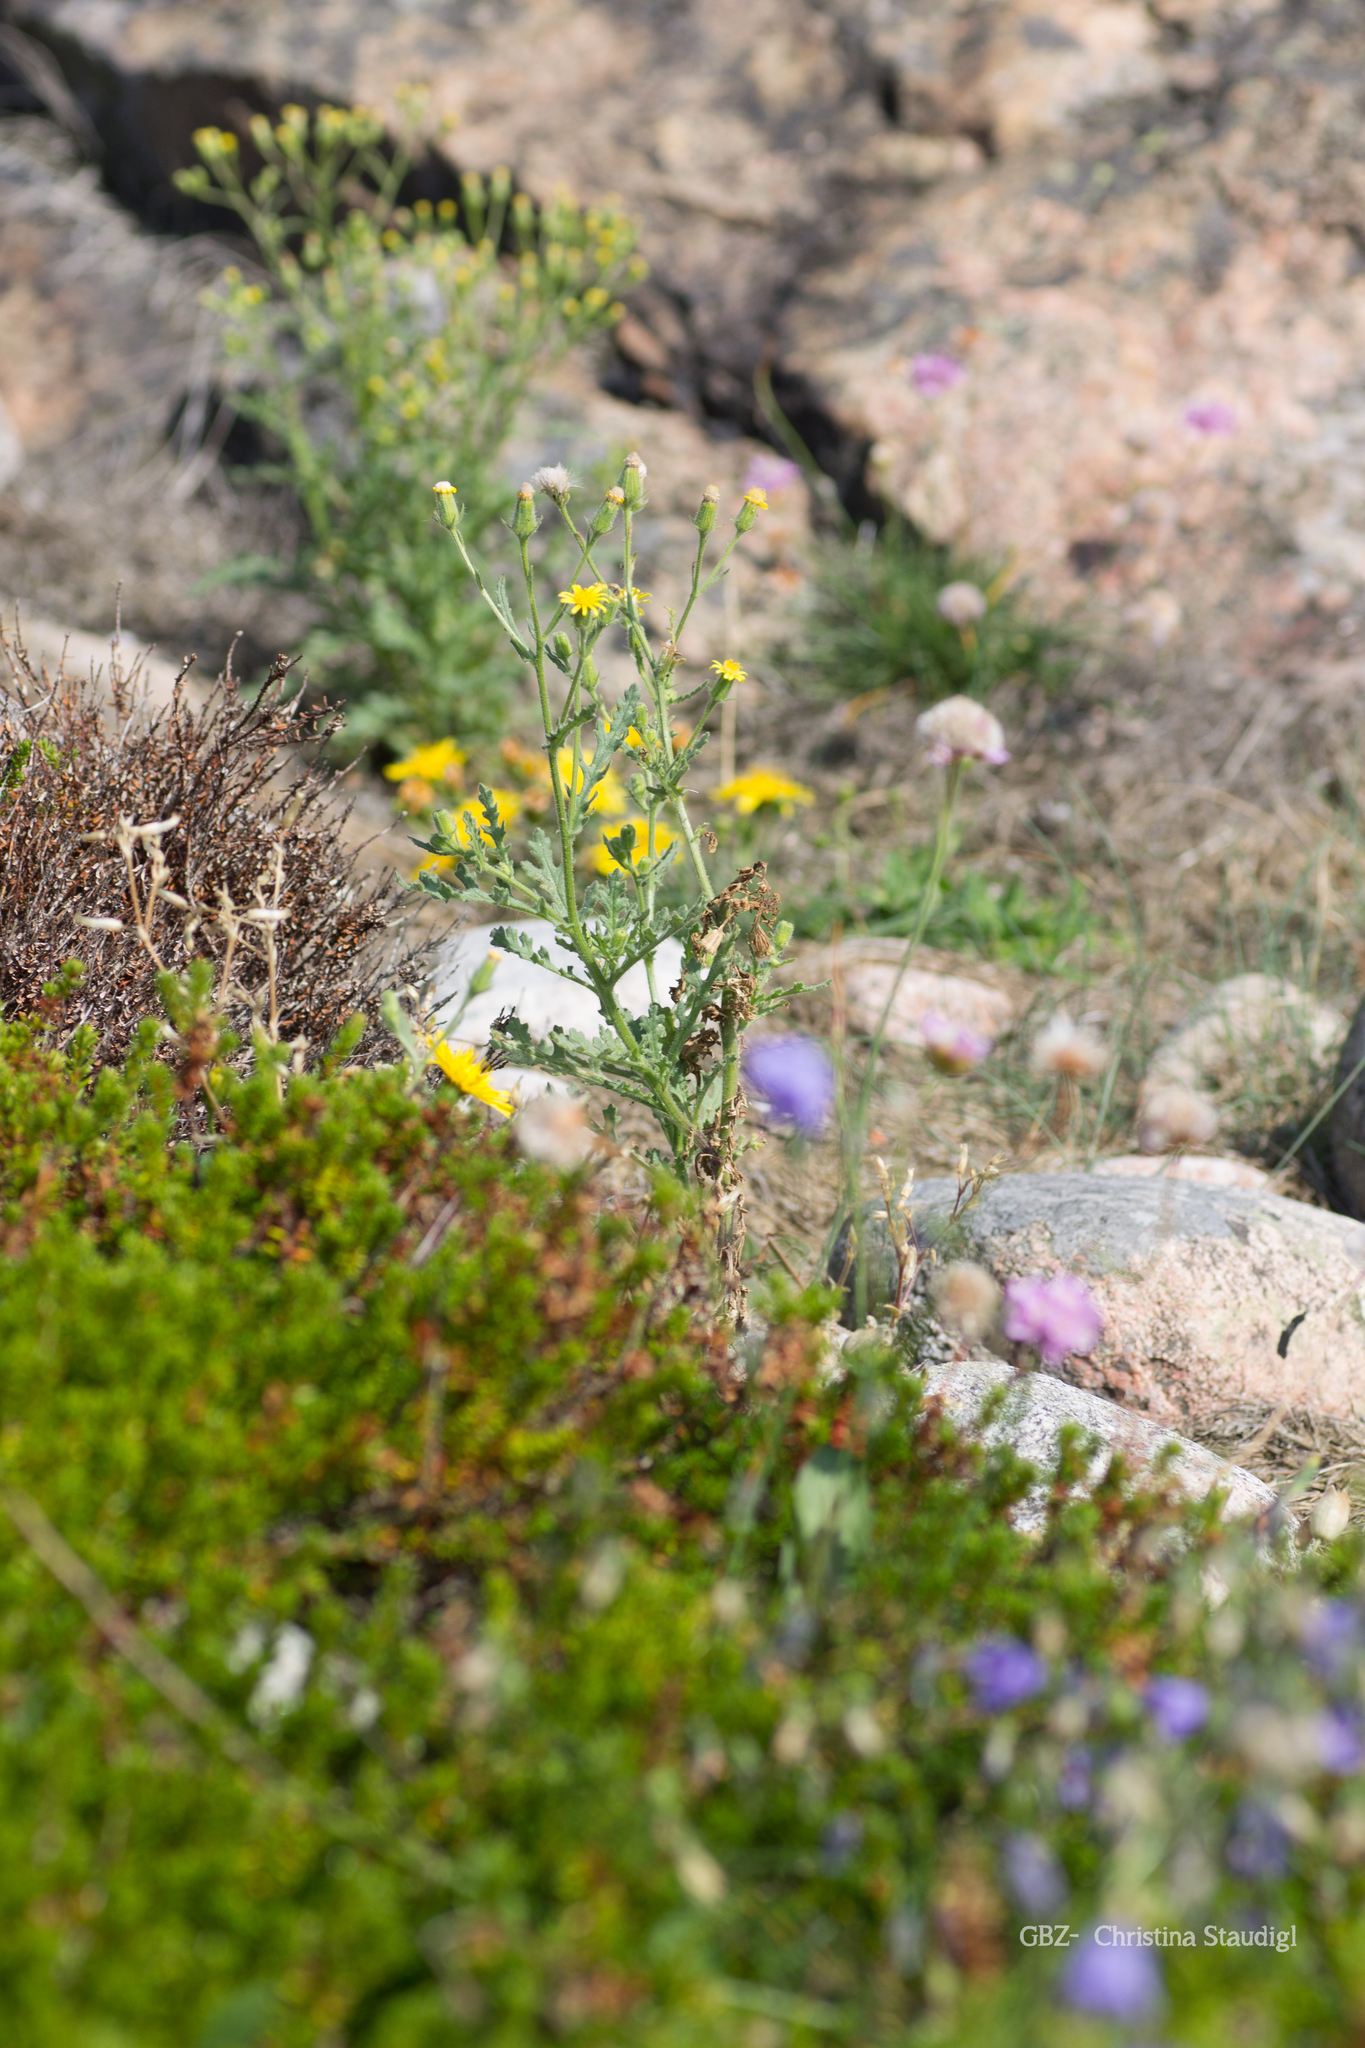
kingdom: Plantae
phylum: Tracheophyta
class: Magnoliopsida
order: Asterales
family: Asteraceae
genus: Senecio
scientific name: Senecio viscosus
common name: Sticky groundsel
